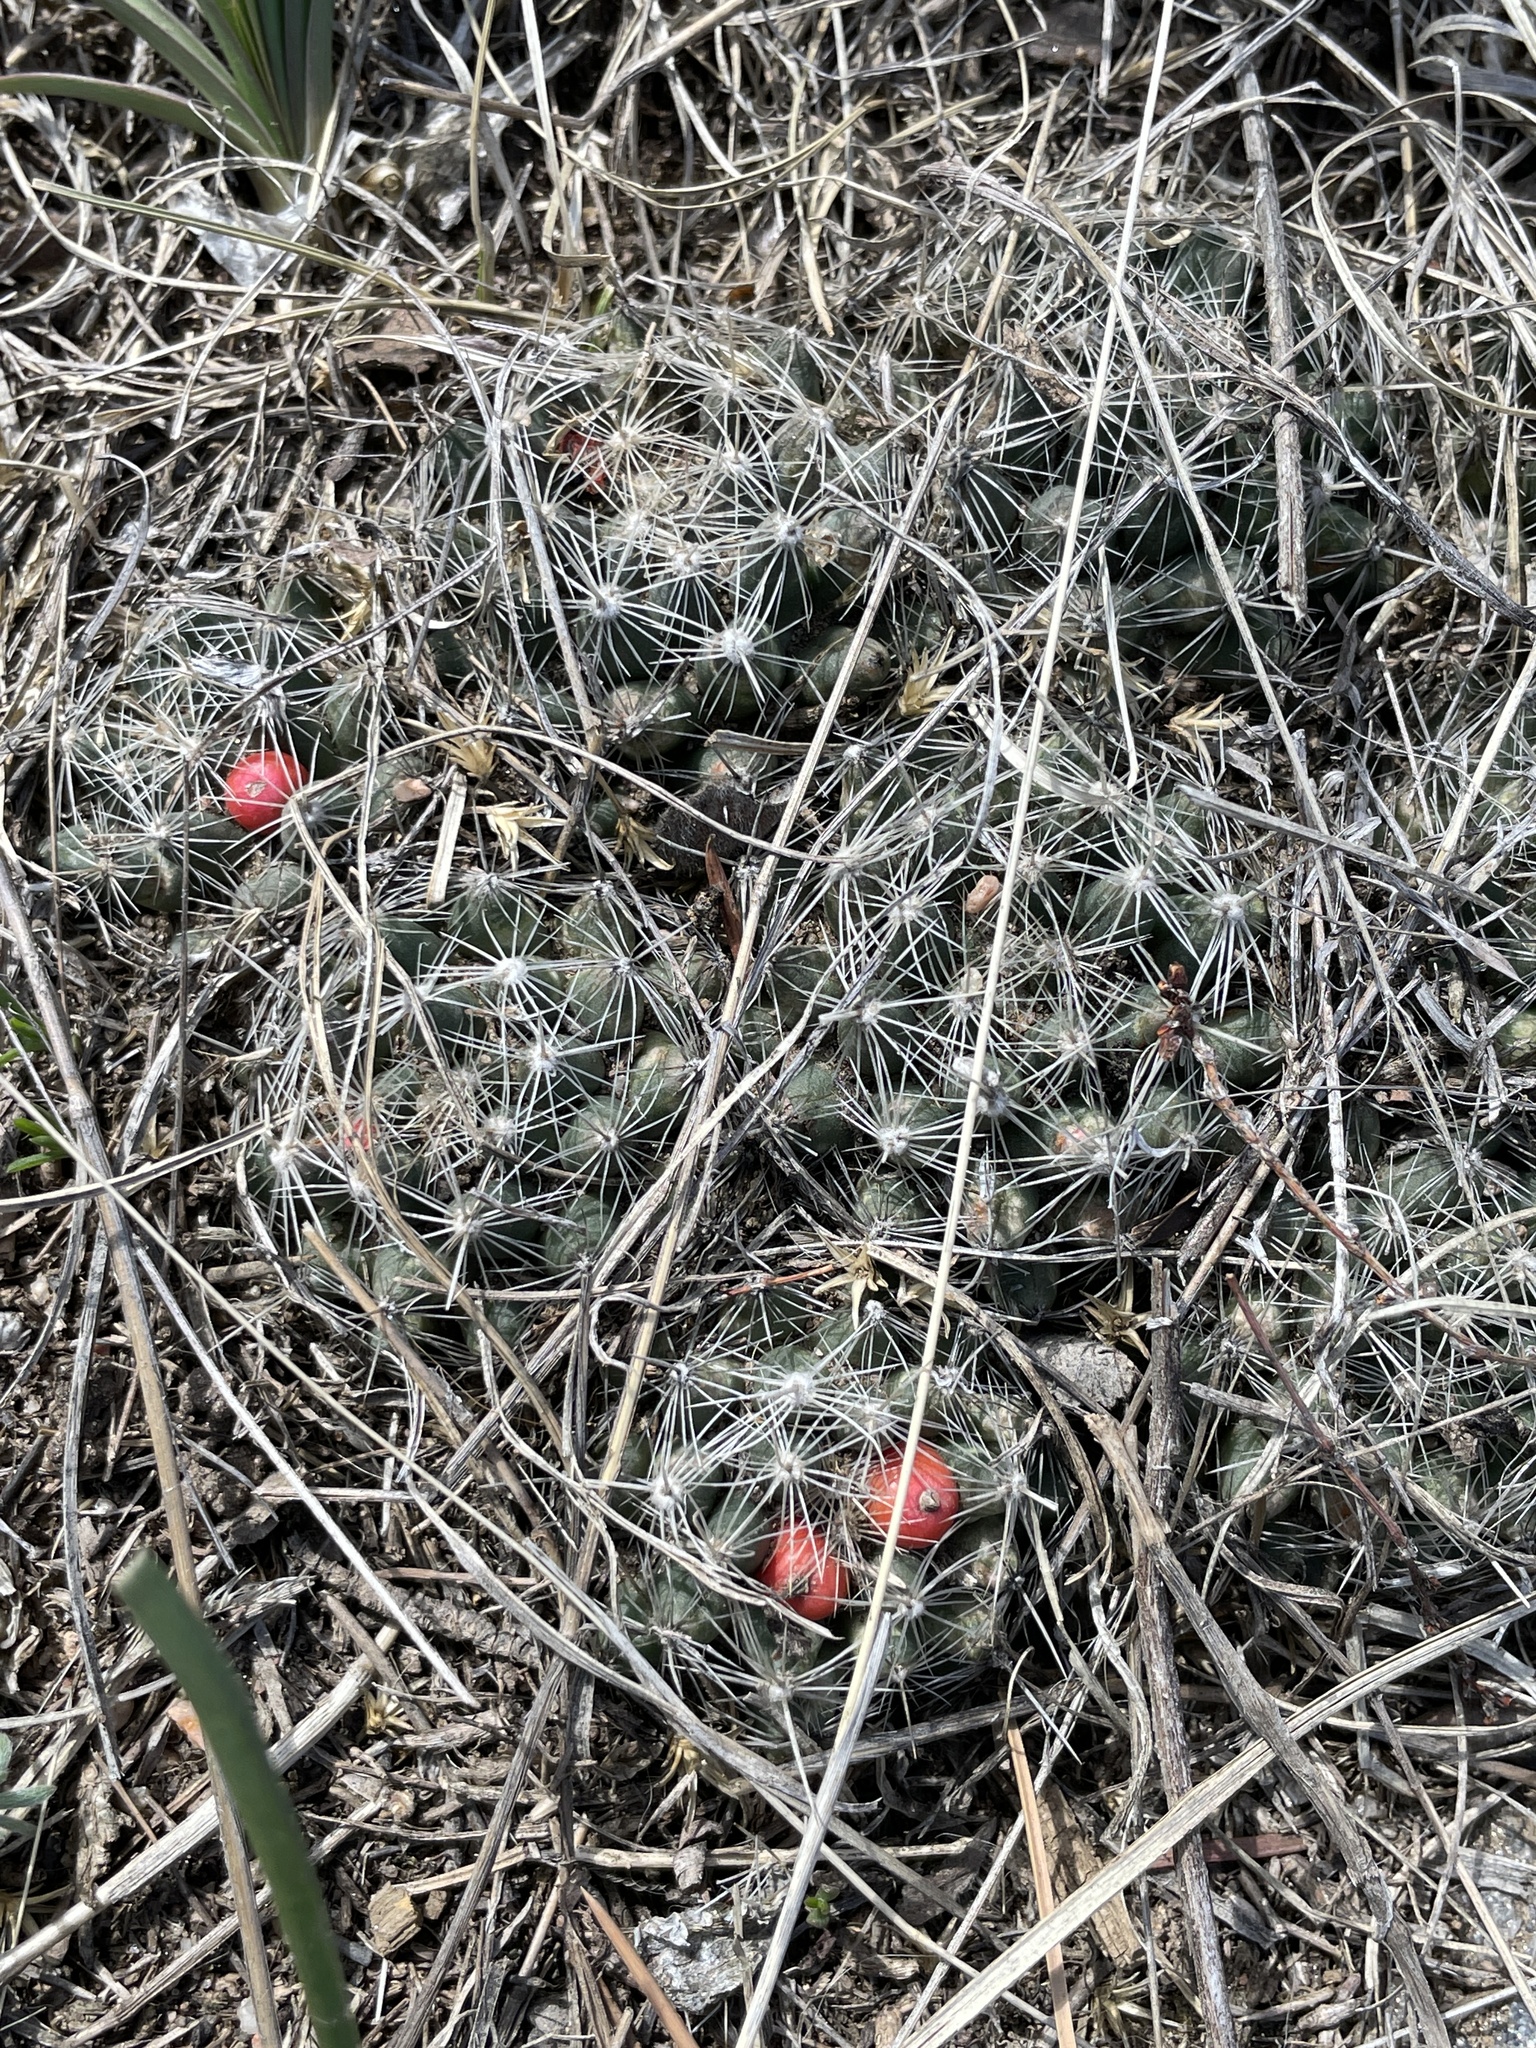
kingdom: Plantae
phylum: Tracheophyta
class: Magnoliopsida
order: Caryophyllales
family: Cactaceae
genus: Pelecyphora
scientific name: Pelecyphora missouriensis
